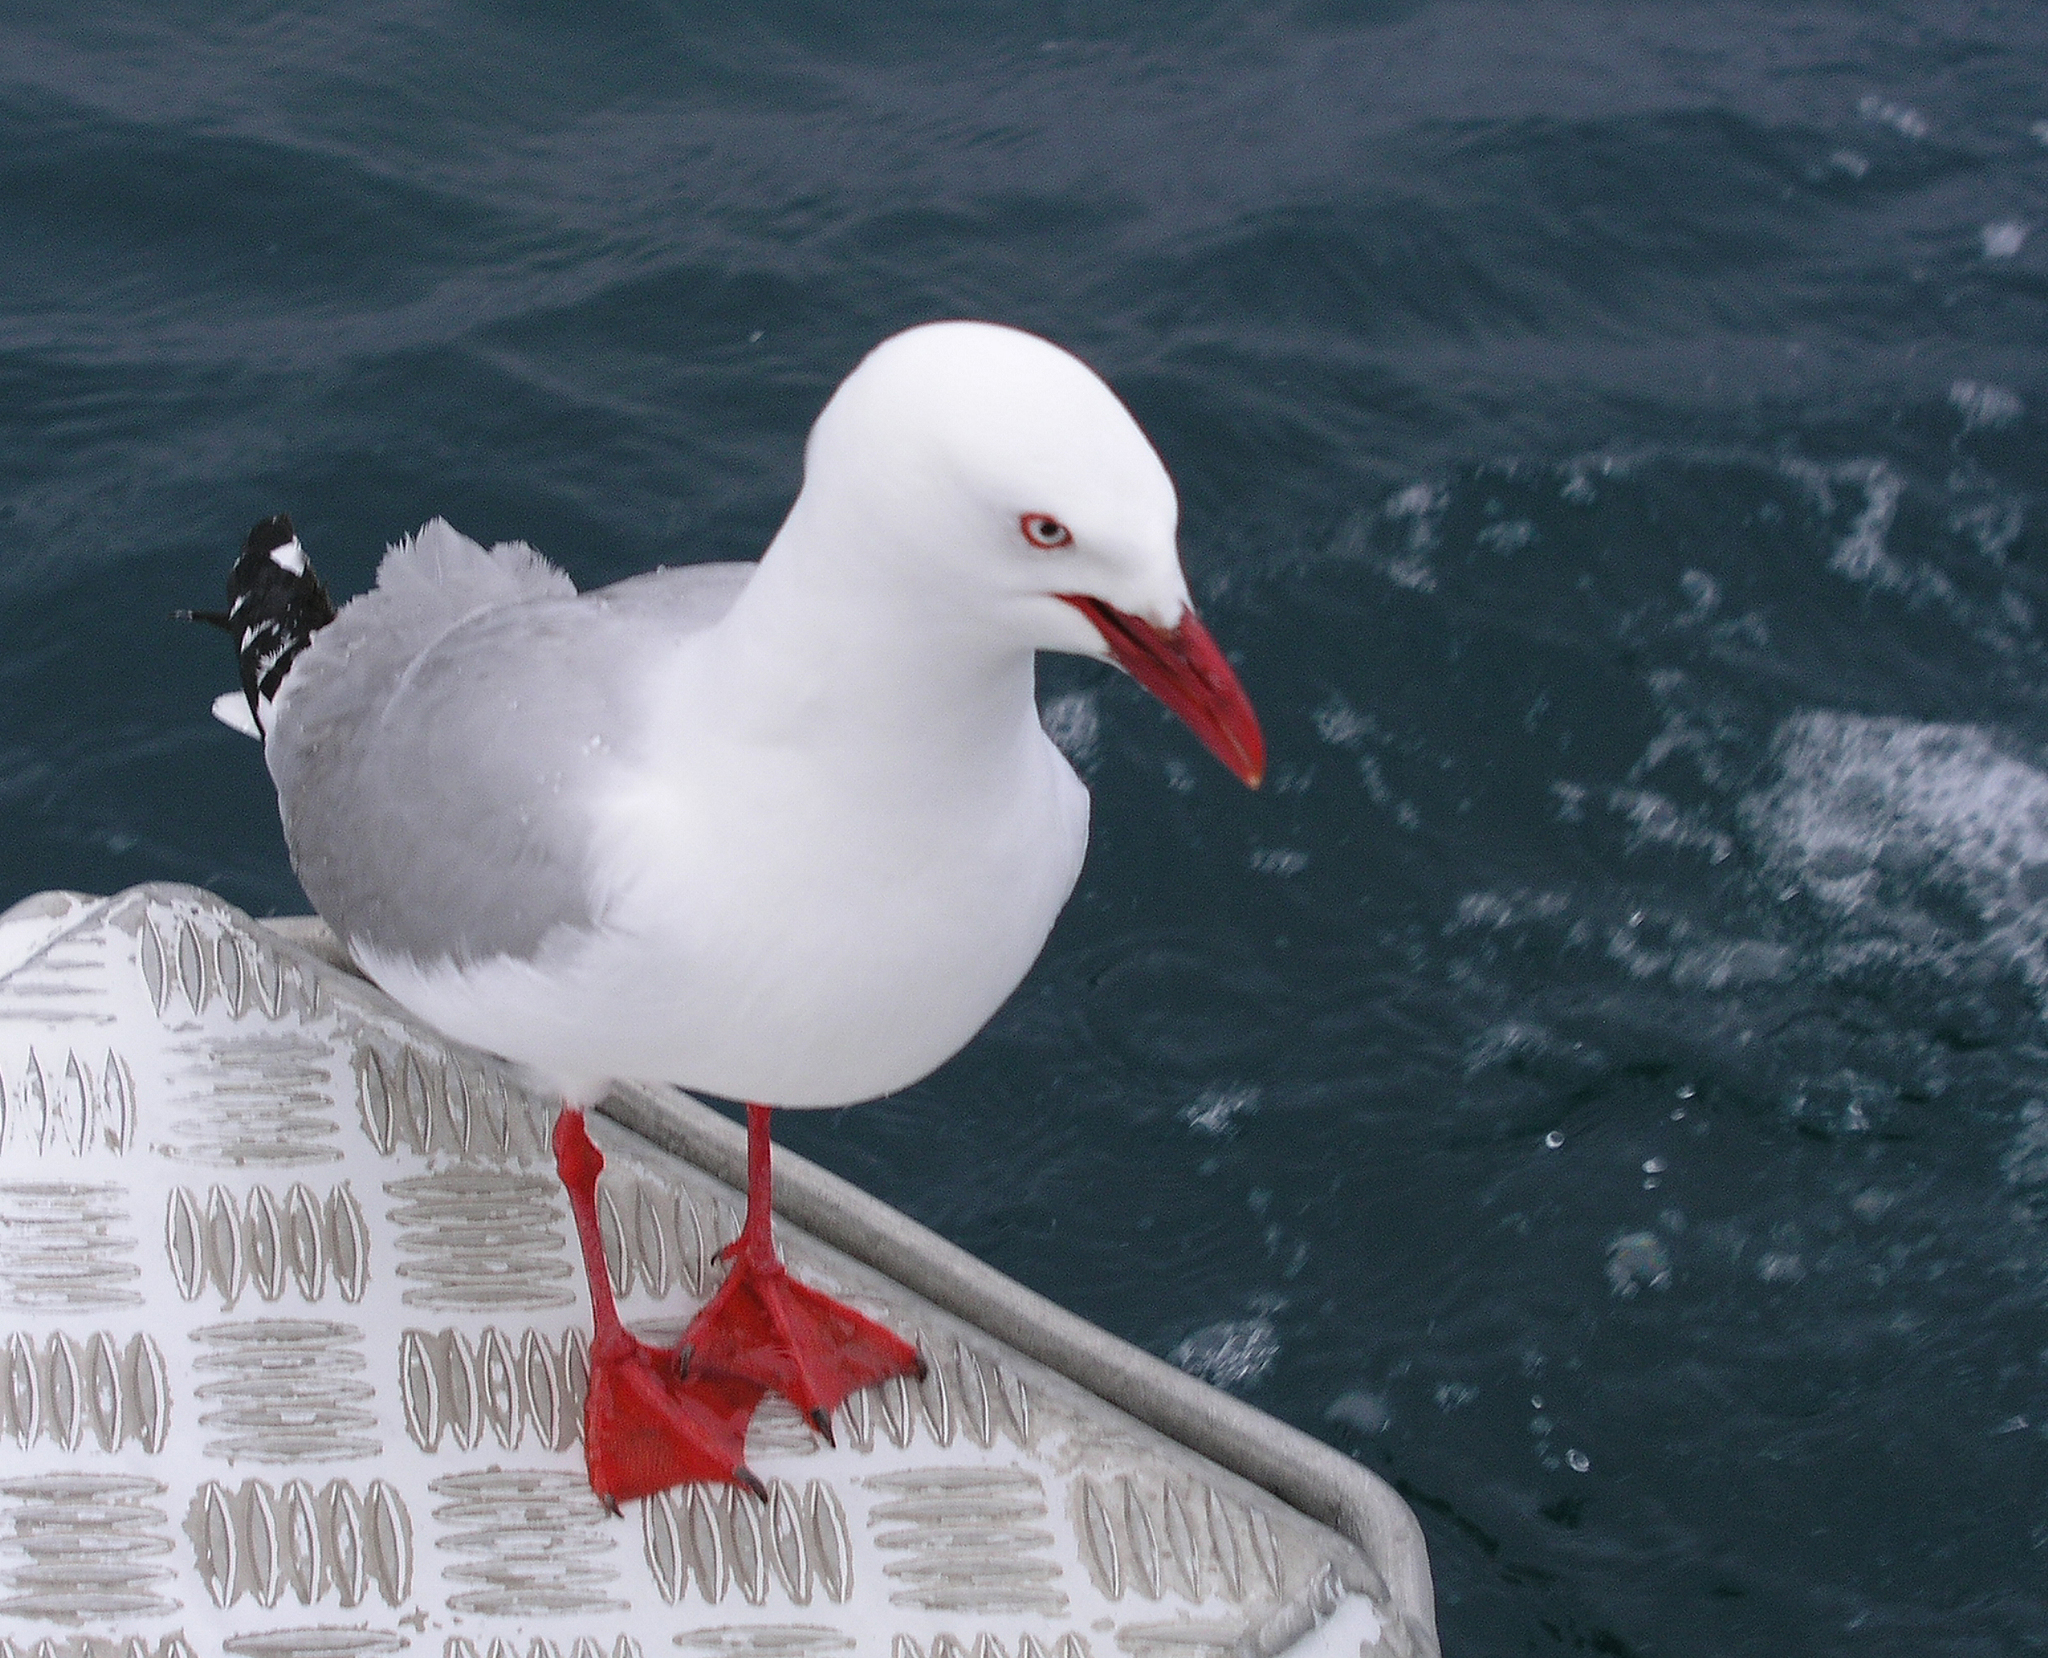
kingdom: Animalia
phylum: Chordata
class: Aves
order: Charadriiformes
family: Laridae
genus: Chroicocephalus
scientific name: Chroicocephalus novaehollandiae
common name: Silver gull
